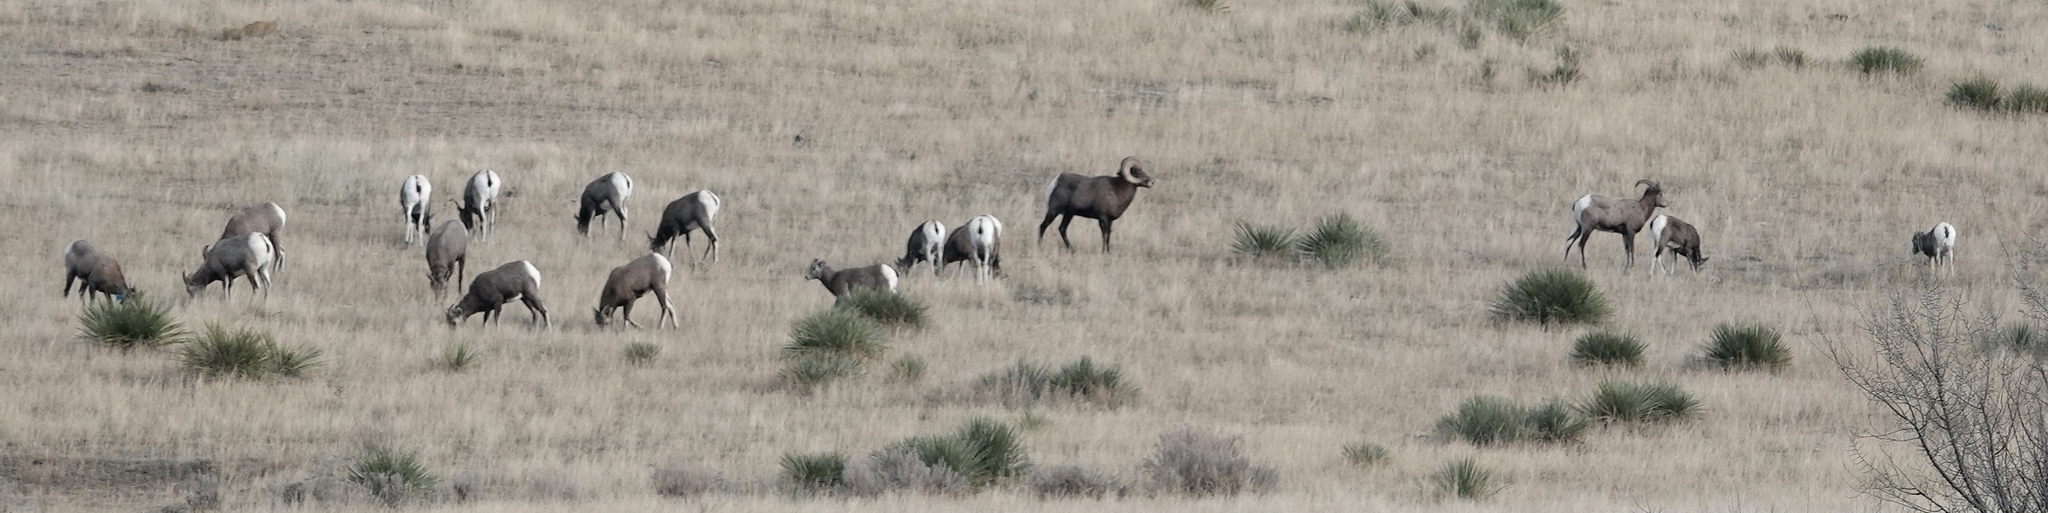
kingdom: Animalia
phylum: Chordata
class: Mammalia
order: Artiodactyla
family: Bovidae
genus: Ovis
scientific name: Ovis canadensis
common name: Bighorn sheep
